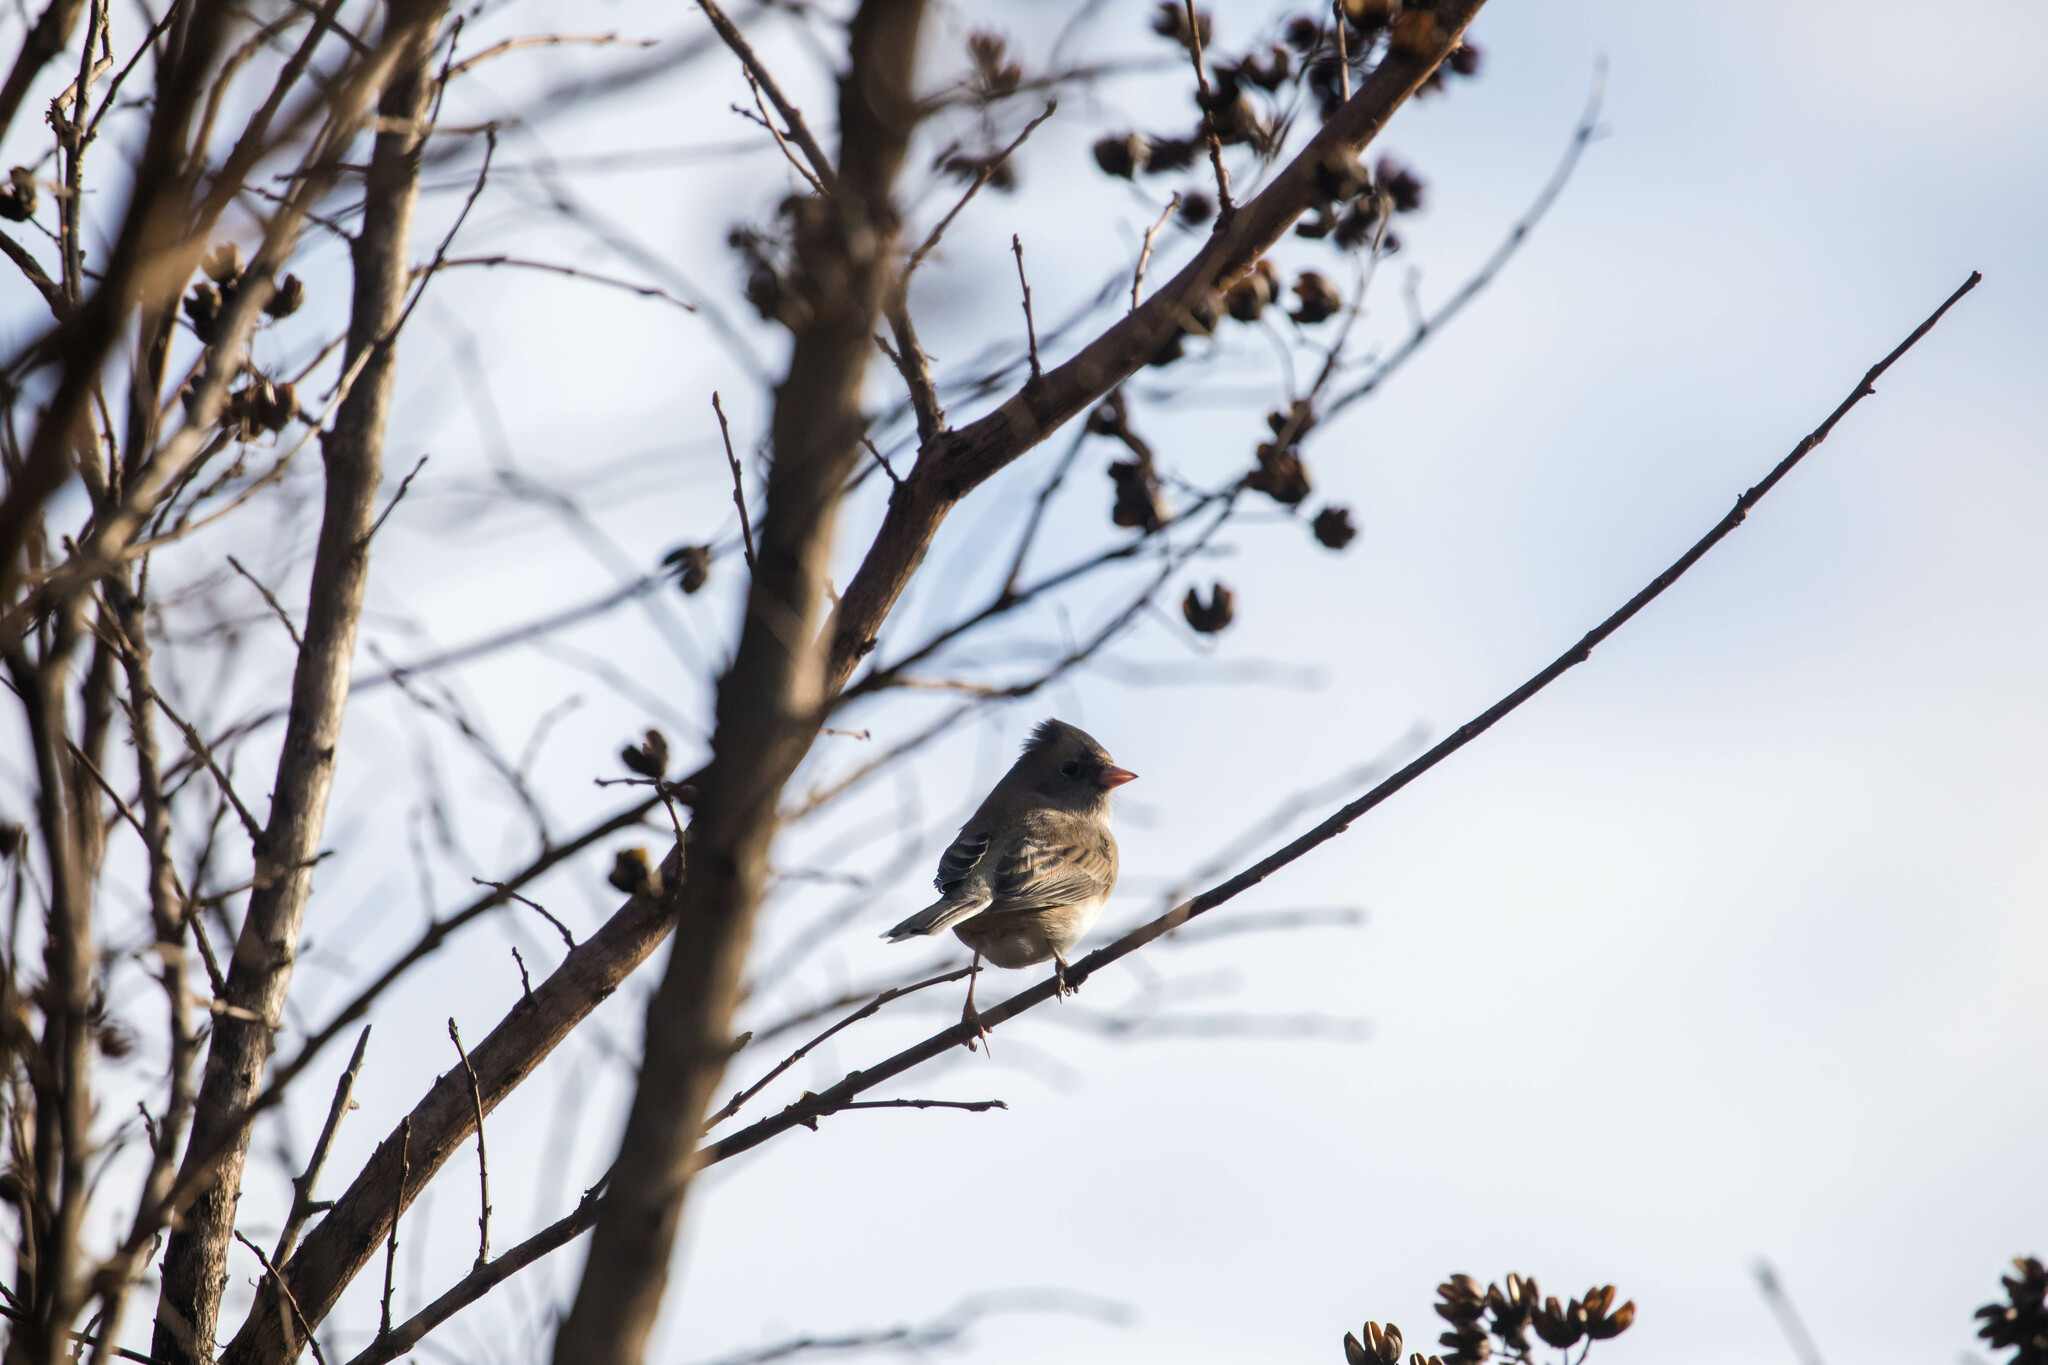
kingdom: Animalia
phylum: Chordata
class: Aves
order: Passeriformes
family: Passerellidae
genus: Junco
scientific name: Junco hyemalis
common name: Dark-eyed junco
